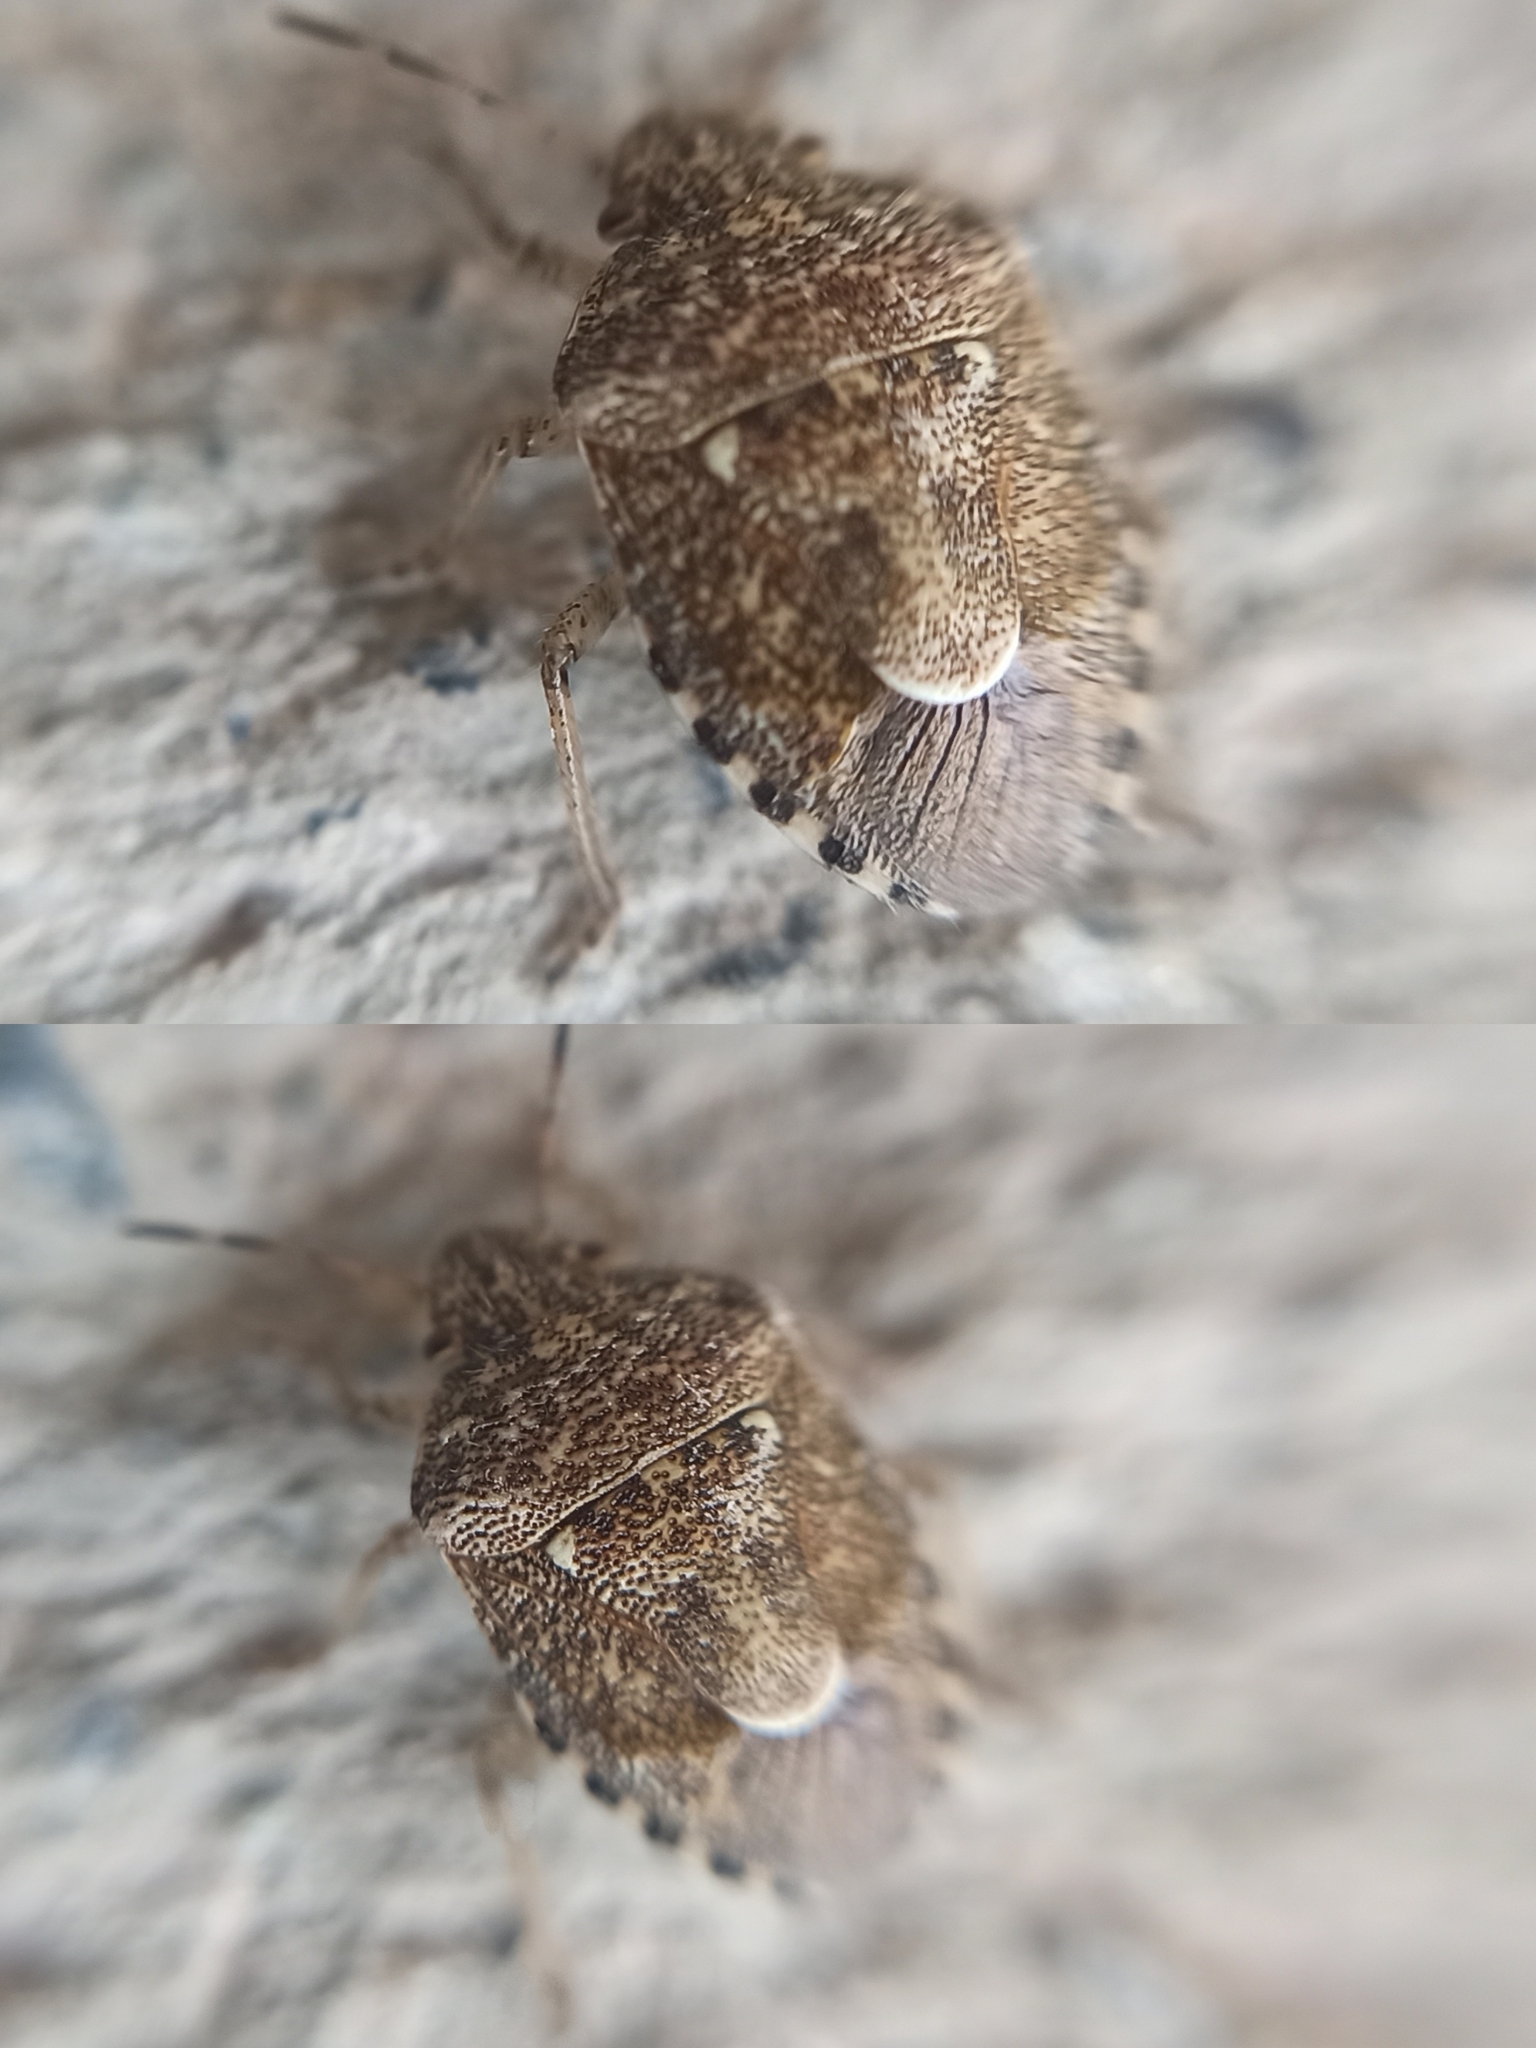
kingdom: Animalia
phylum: Arthropoda
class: Insecta
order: Hemiptera
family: Pentatomidae
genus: Staria
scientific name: Staria lunata
